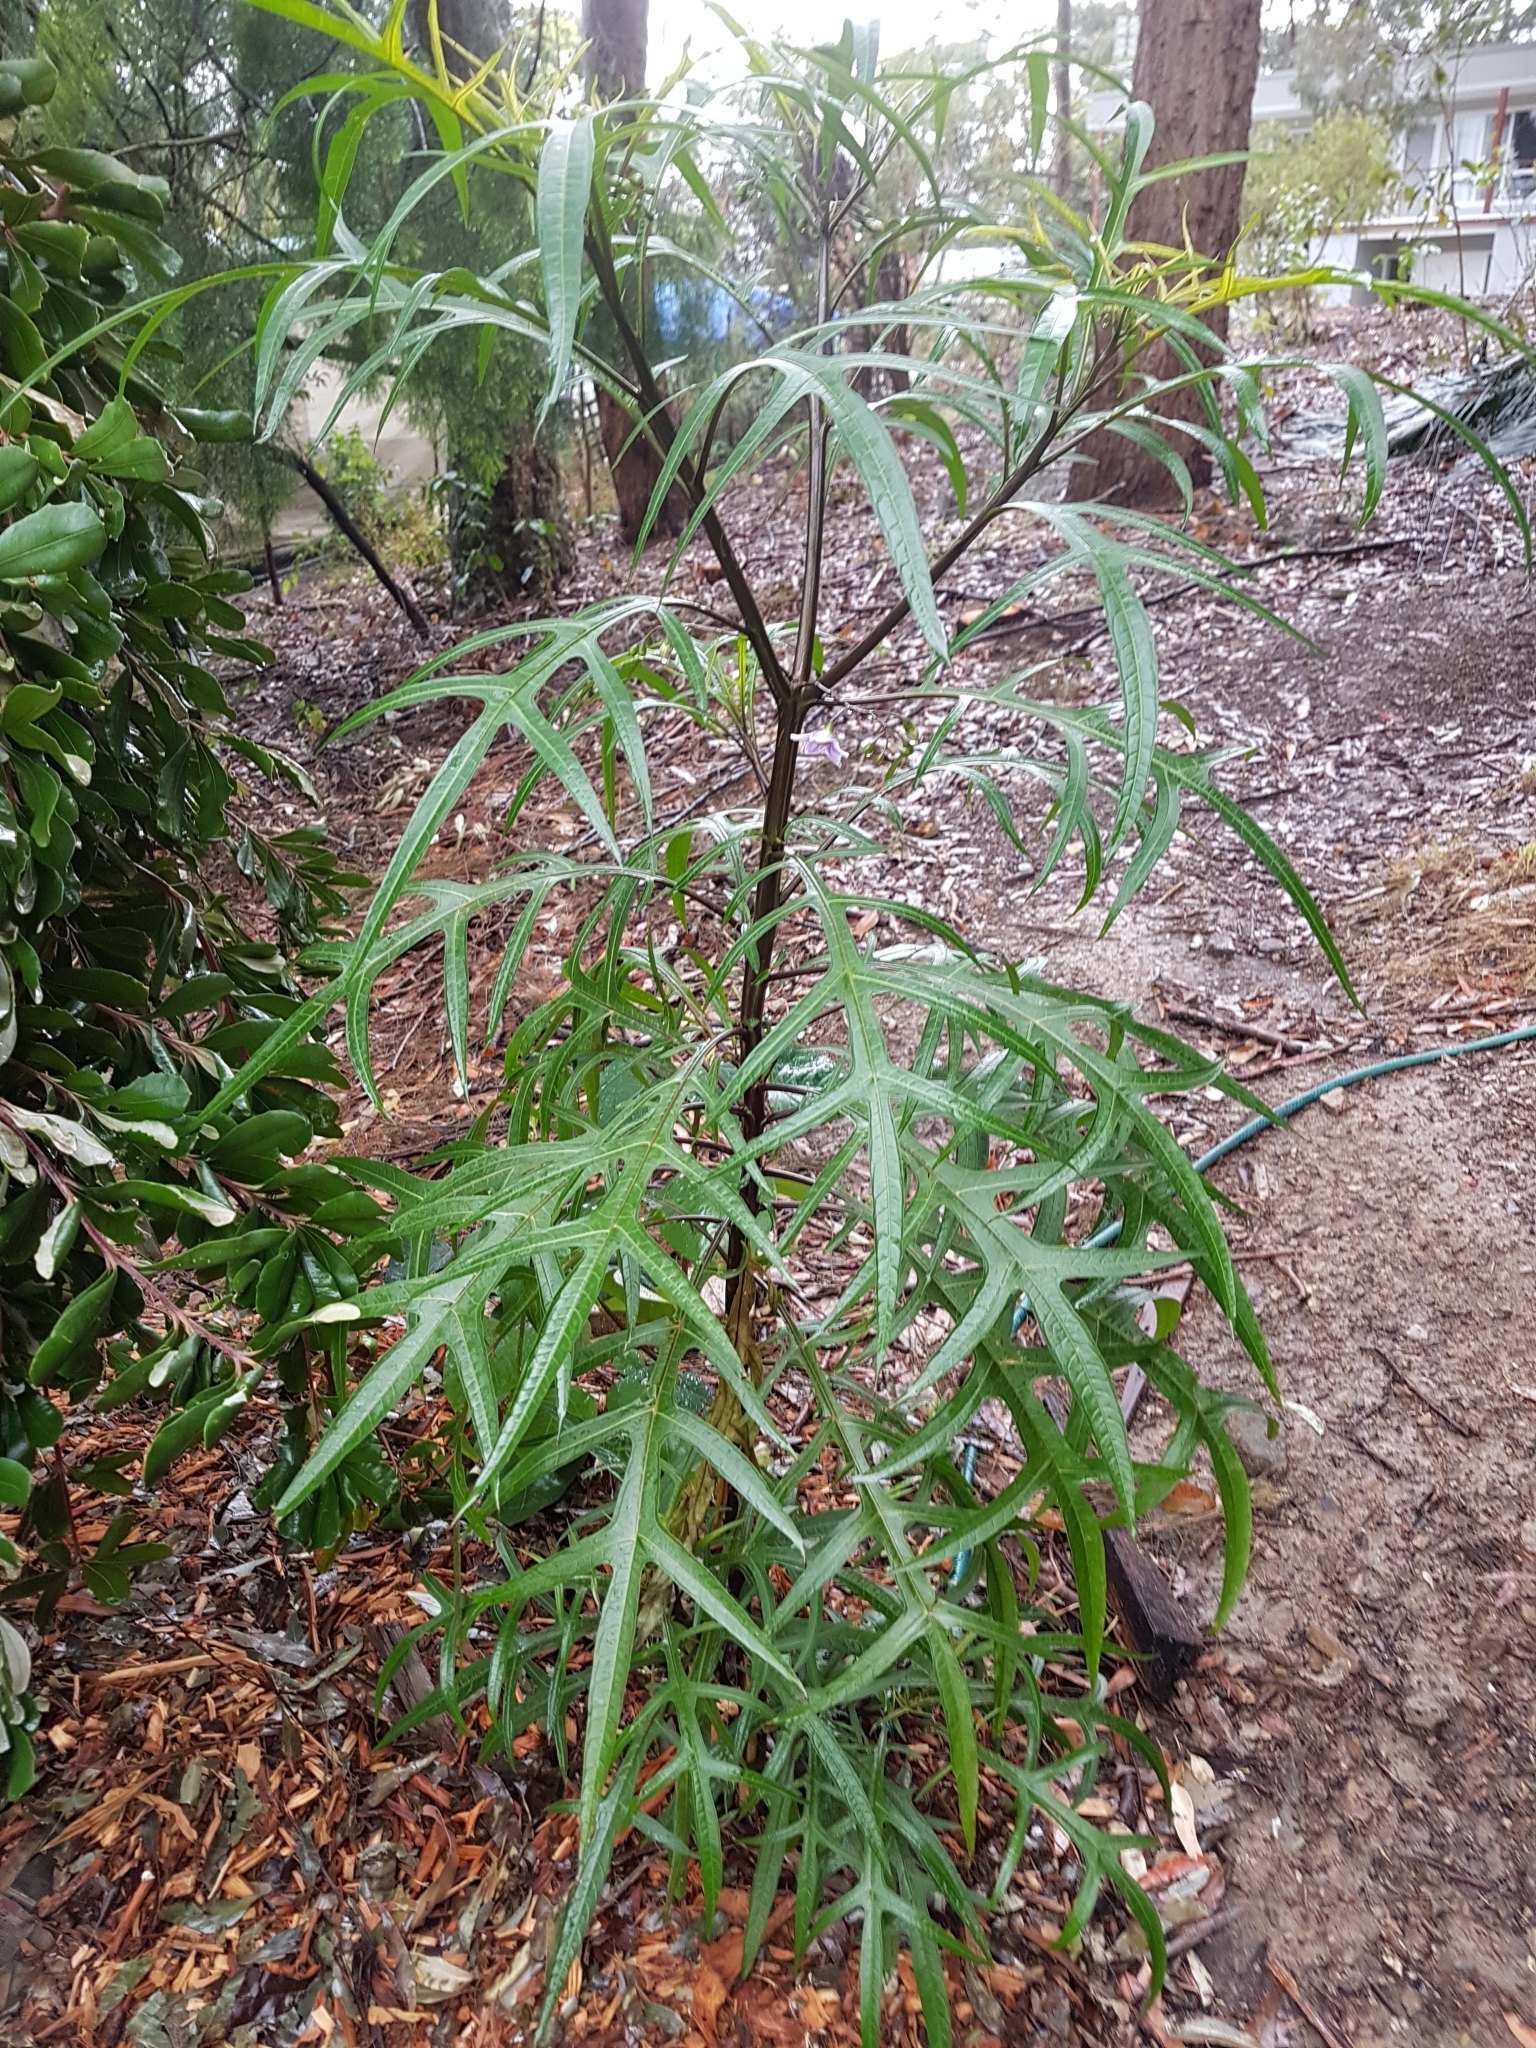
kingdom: Plantae
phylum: Tracheophyta
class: Magnoliopsida
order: Solanales
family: Solanaceae
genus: Solanum
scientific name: Solanum aviculare
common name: New zealand nightshade
